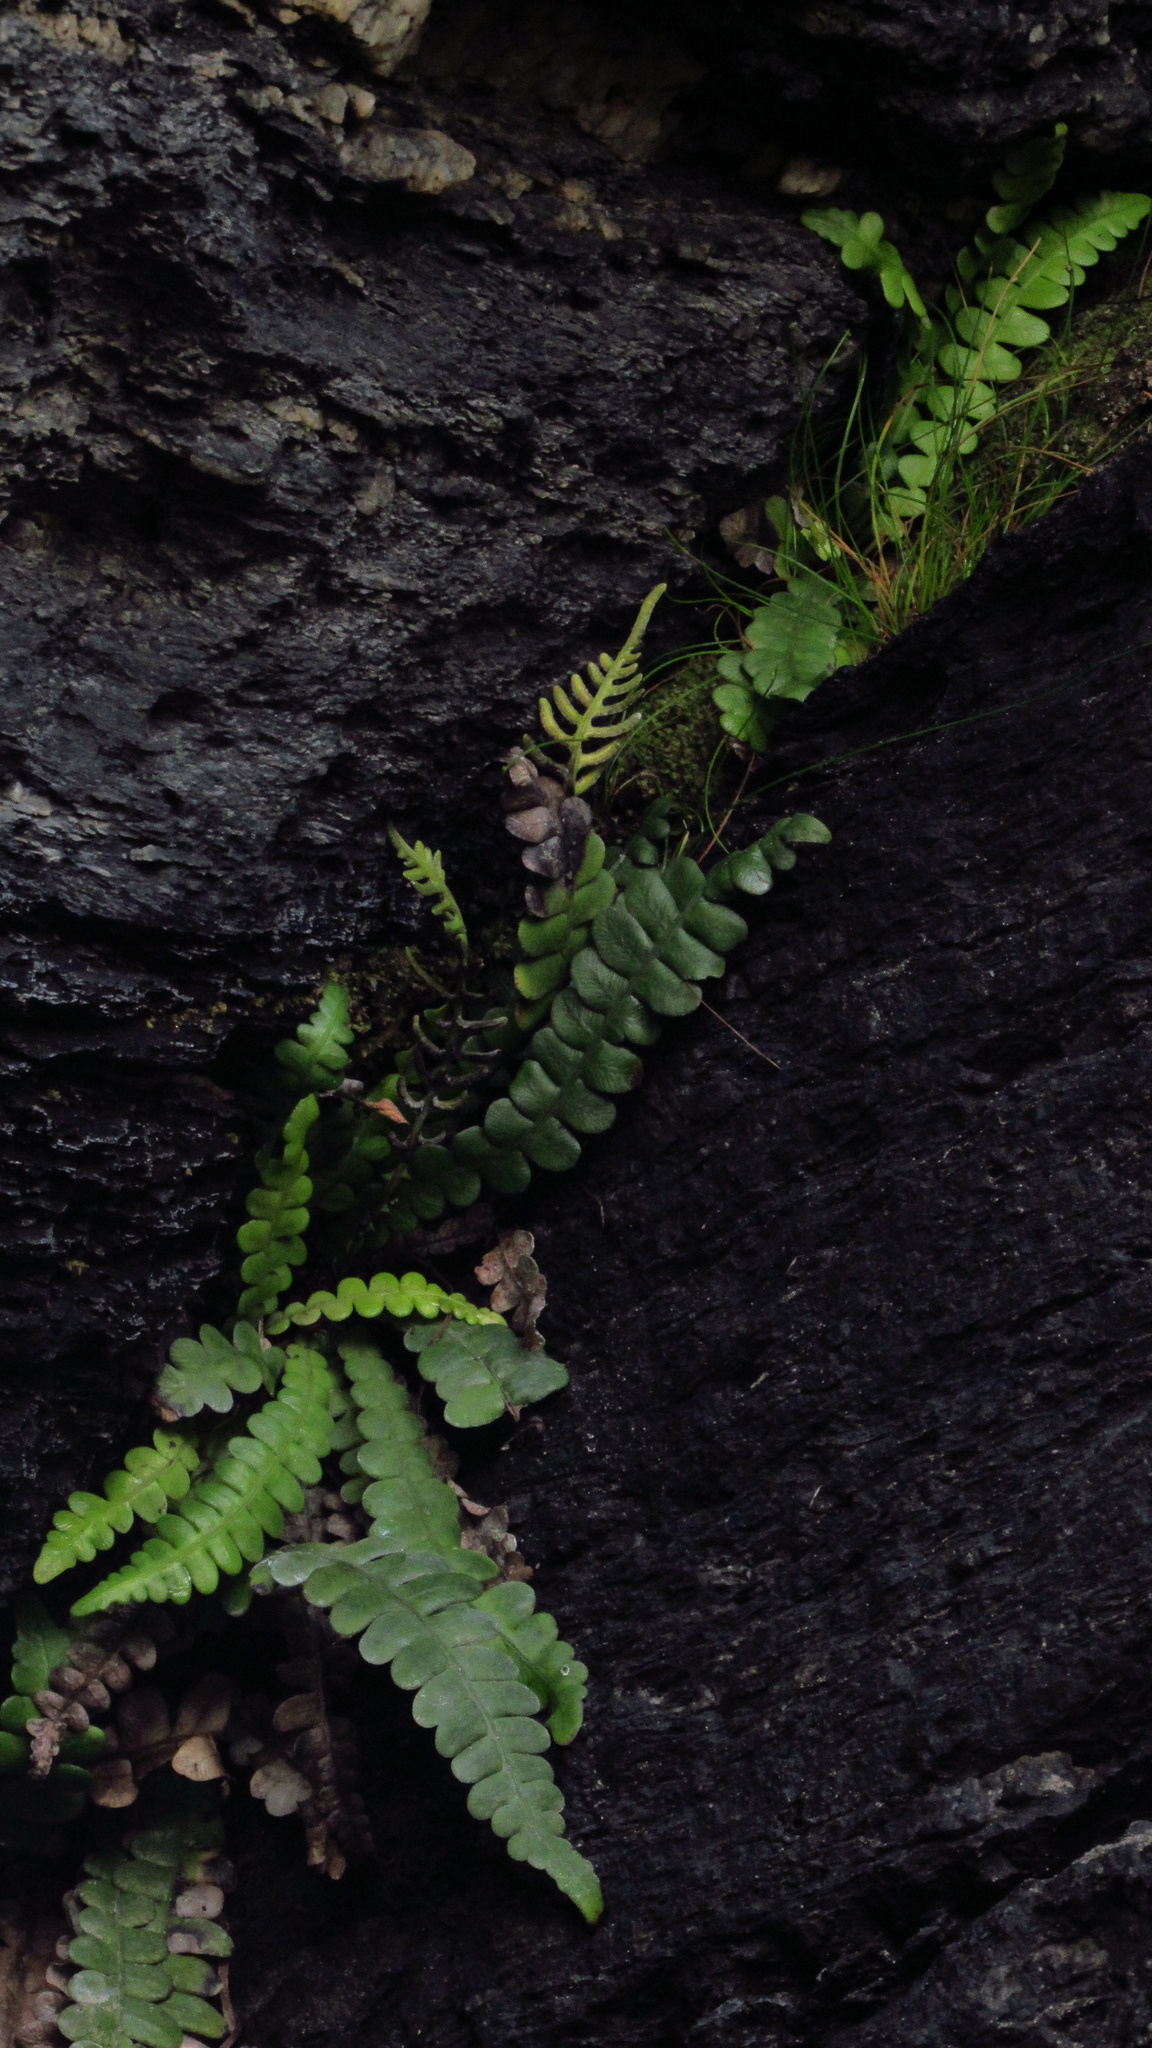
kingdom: Plantae
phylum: Tracheophyta
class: Polypodiopsida
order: Polypodiales
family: Blechnaceae
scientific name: Blechnaceae
